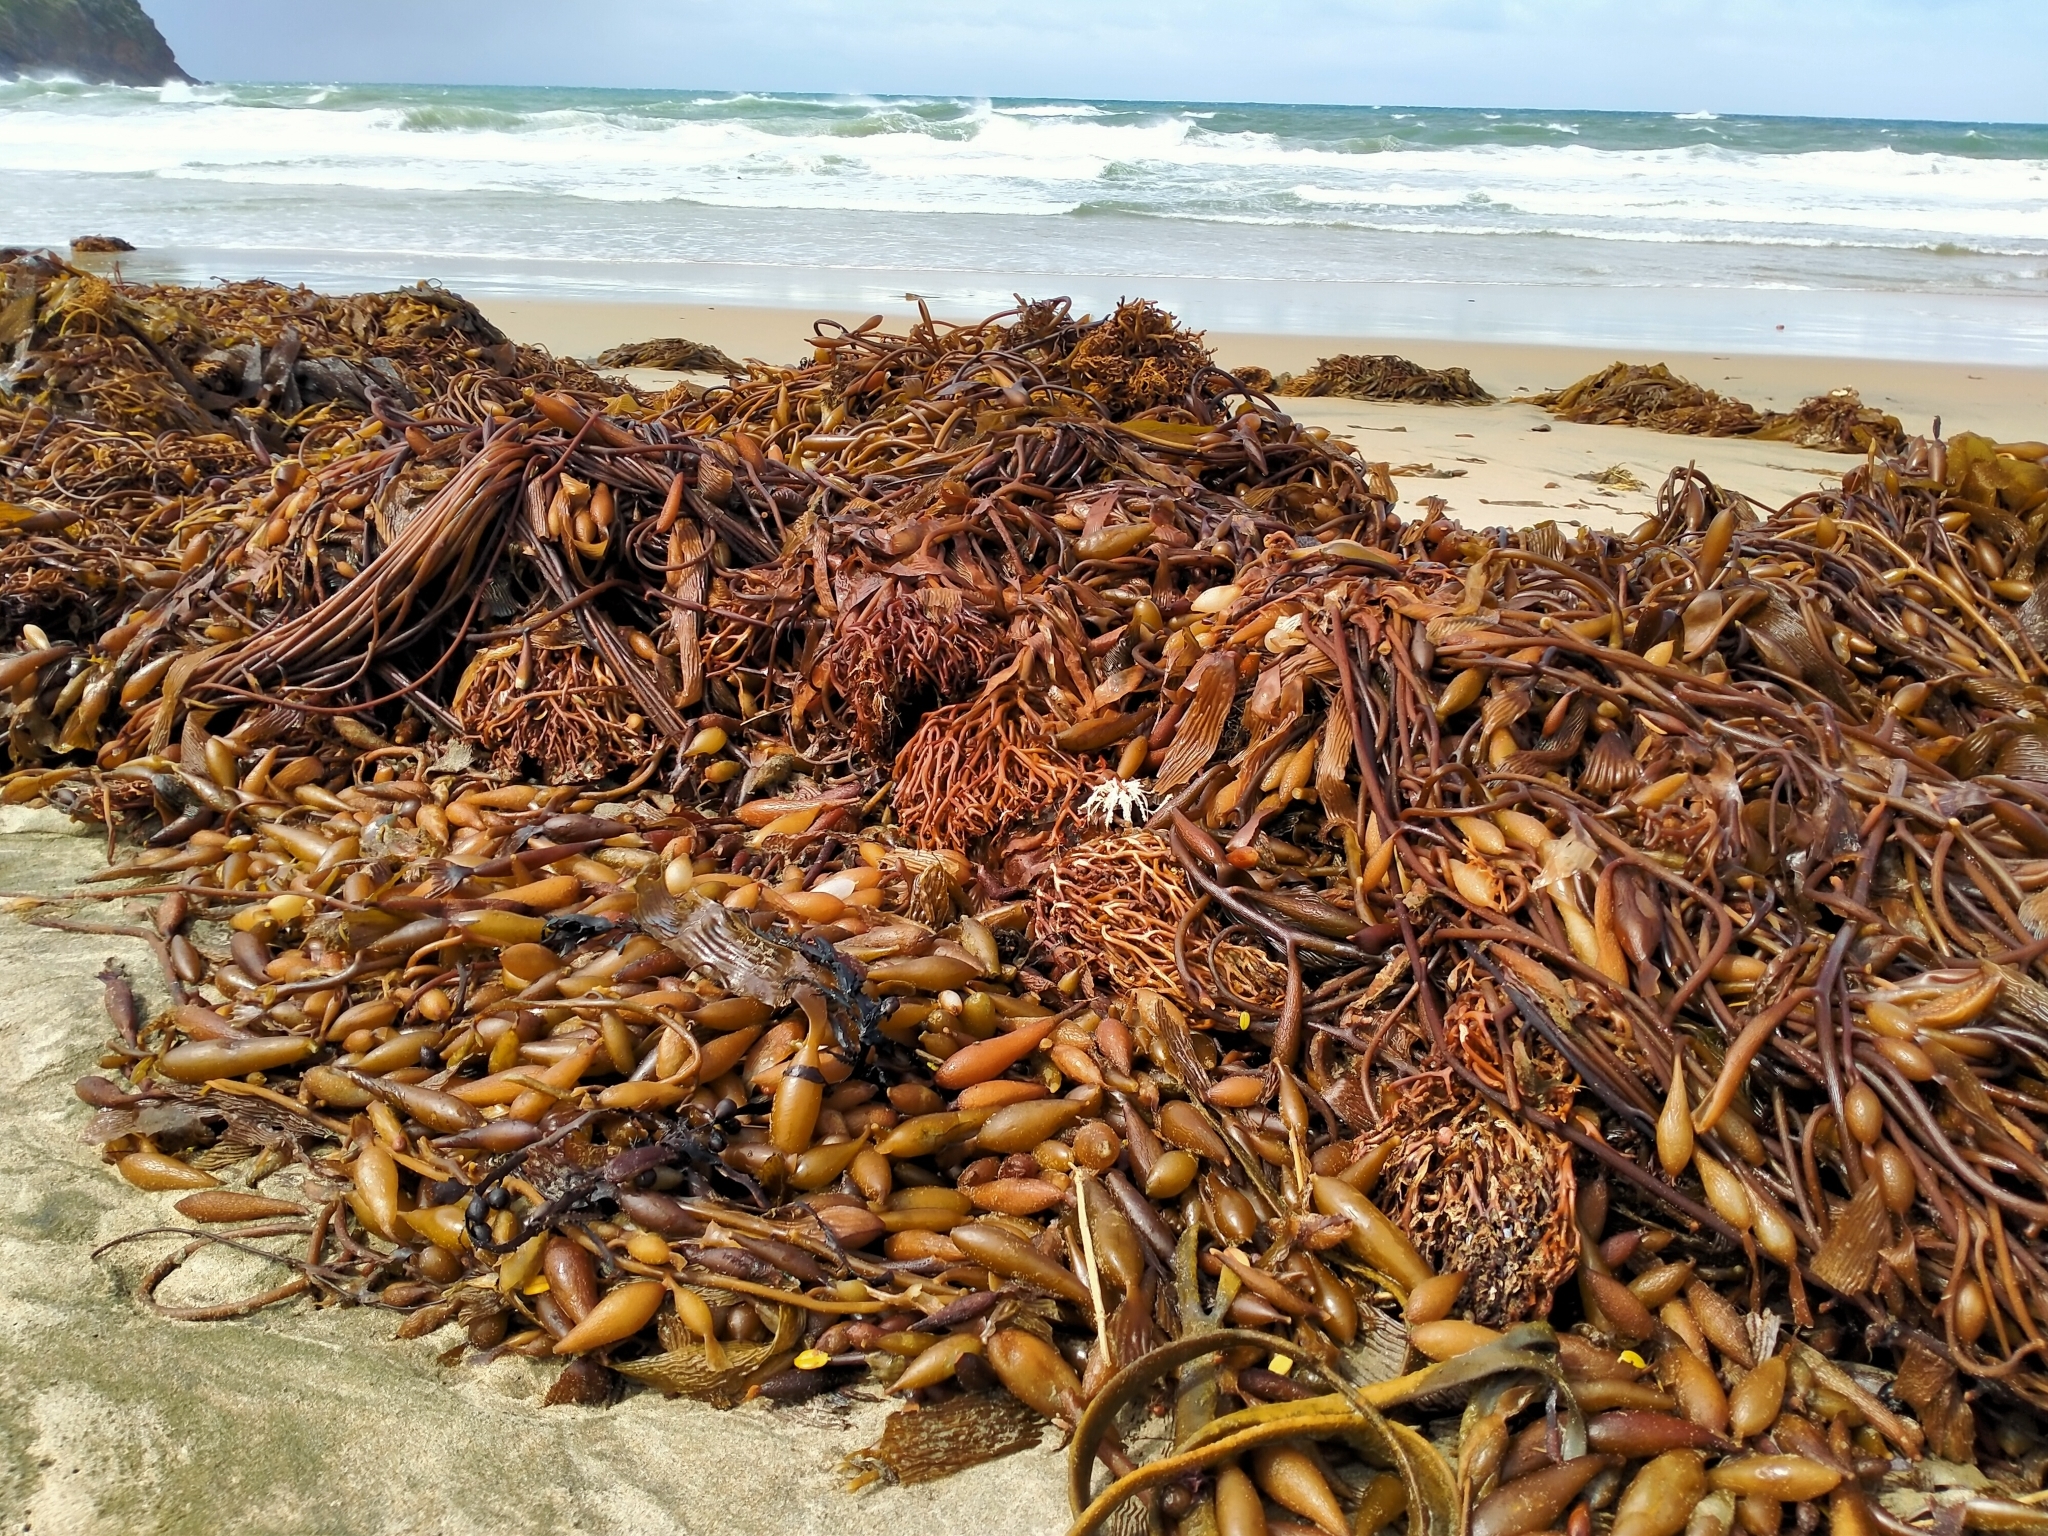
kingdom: Chromista
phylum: Ochrophyta
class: Phaeophyceae
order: Laminariales
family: Laminariaceae
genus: Macrocystis
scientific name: Macrocystis pyrifera
